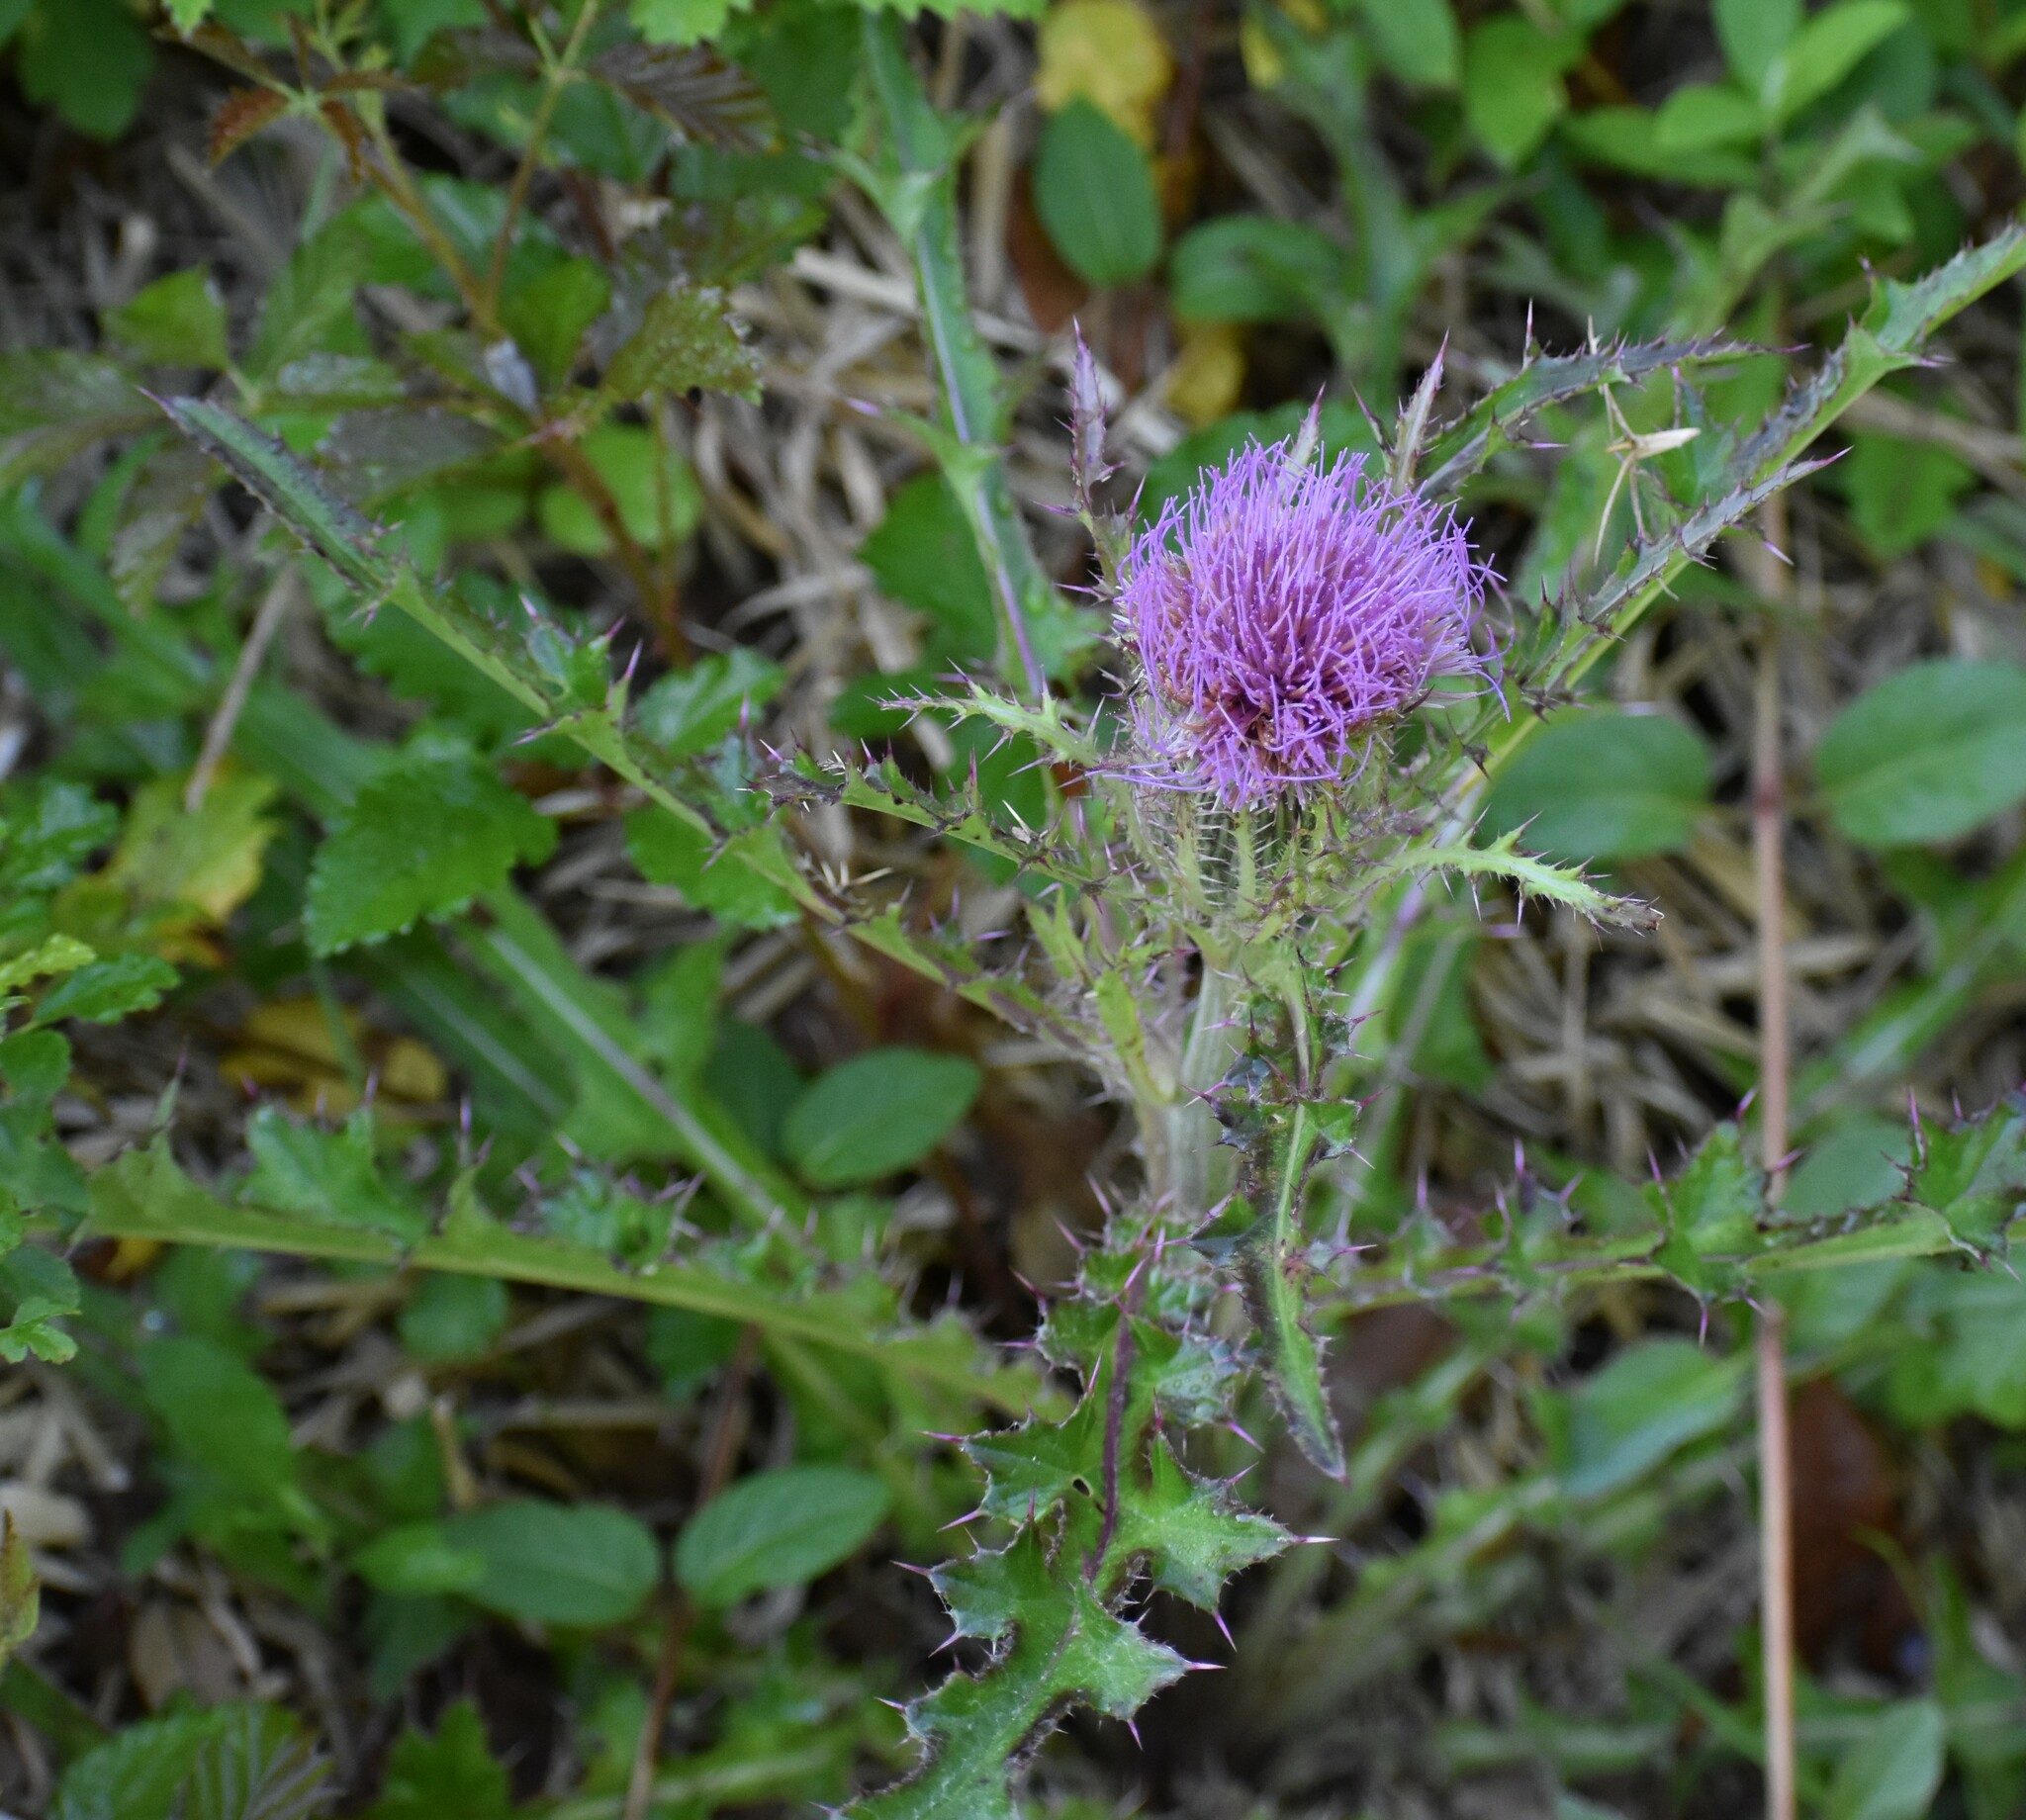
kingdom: Plantae
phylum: Tracheophyta
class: Magnoliopsida
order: Asterales
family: Asteraceae
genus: Cirsium
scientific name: Cirsium horridulum
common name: Bristly thistle
